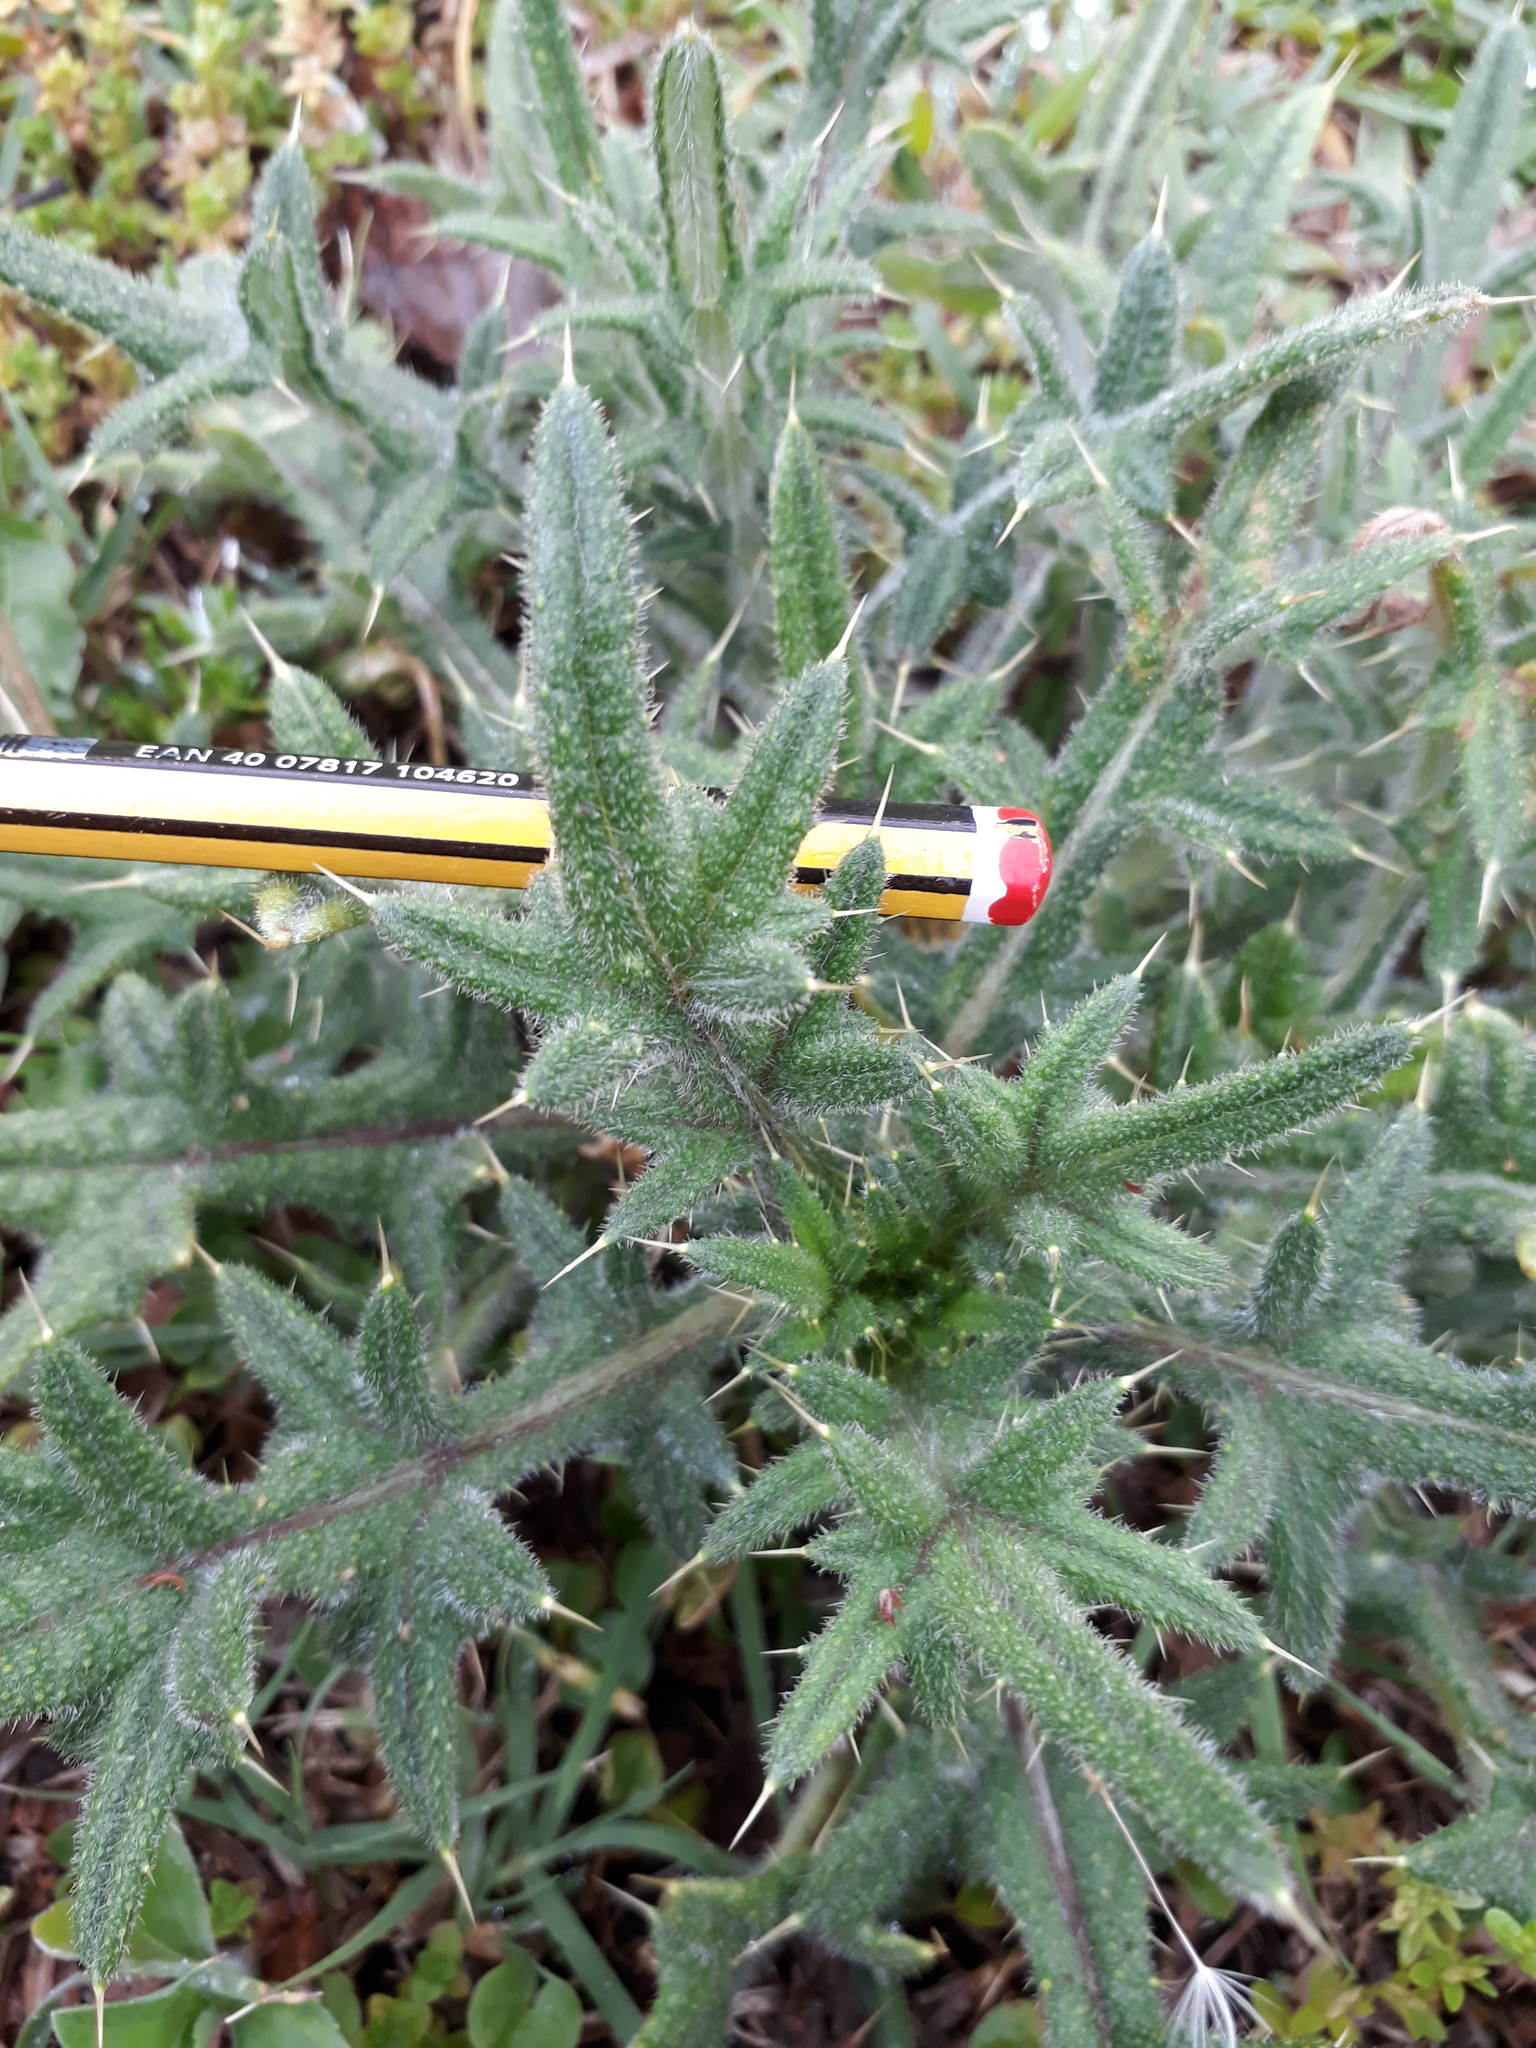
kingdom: Plantae
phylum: Tracheophyta
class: Magnoliopsida
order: Asterales
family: Asteraceae
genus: Cirsium
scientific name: Cirsium vulgare
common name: Bull thistle
